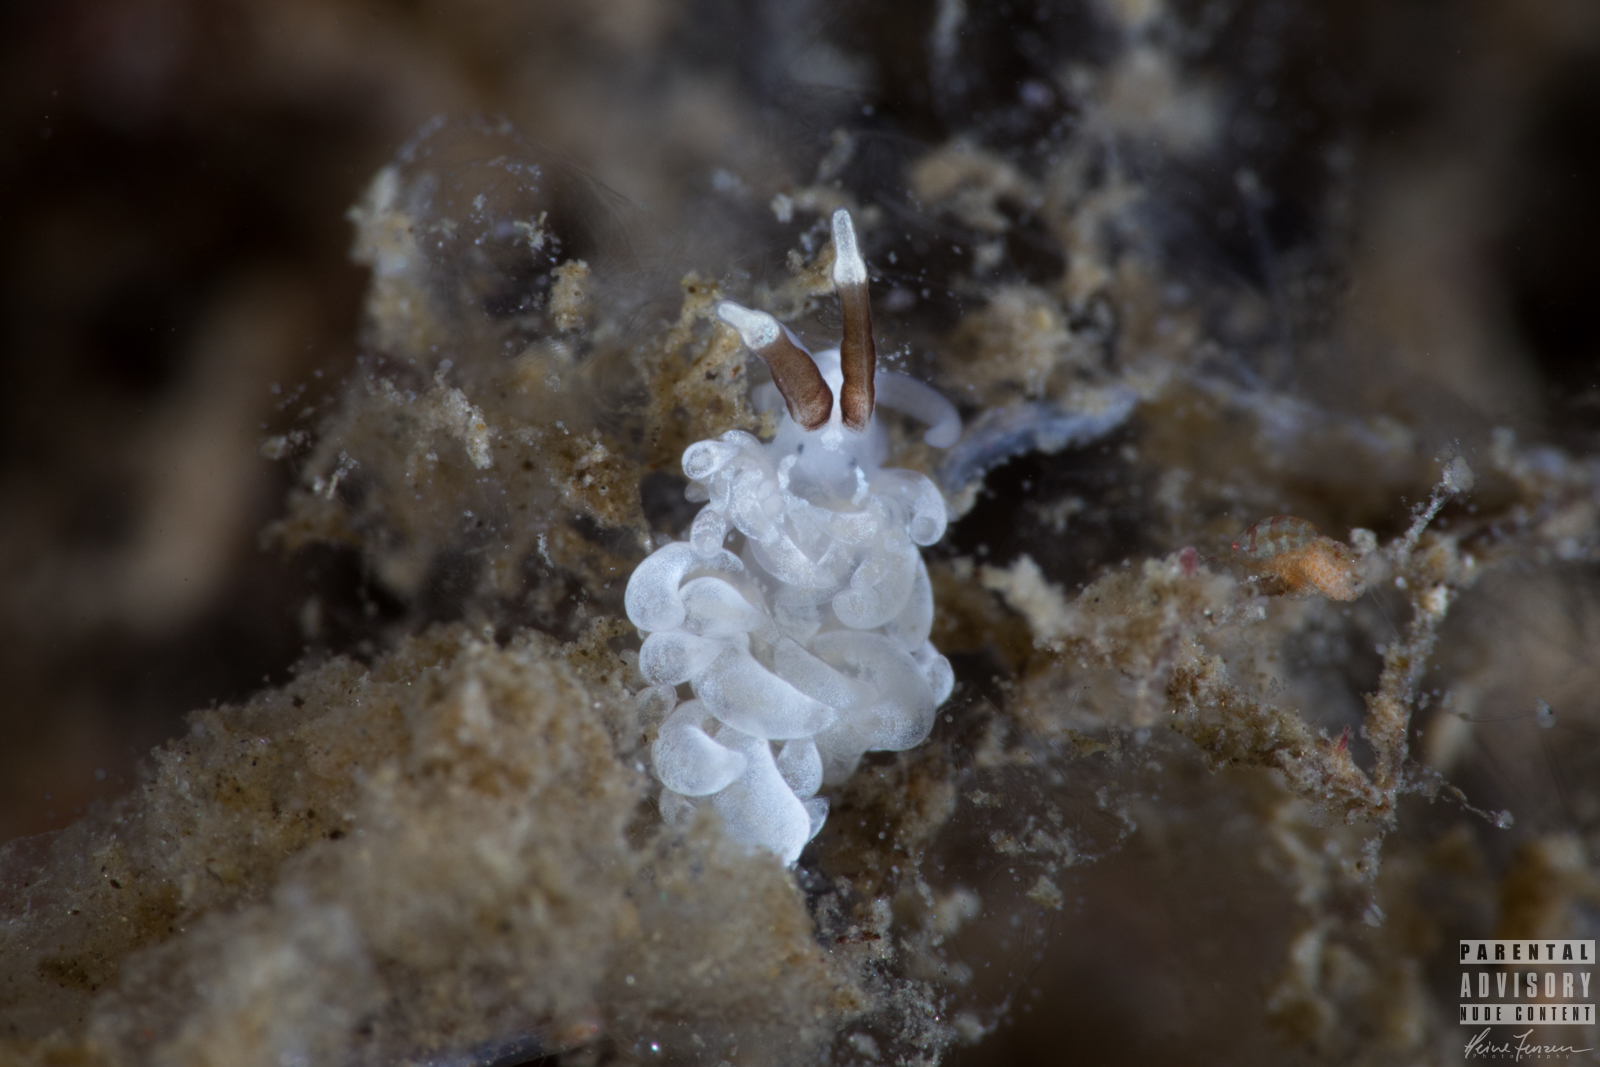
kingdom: Animalia
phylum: Mollusca
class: Gastropoda
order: Nudibranchia
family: Facelinidae
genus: Favorinus
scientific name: Favorinus branchialis
